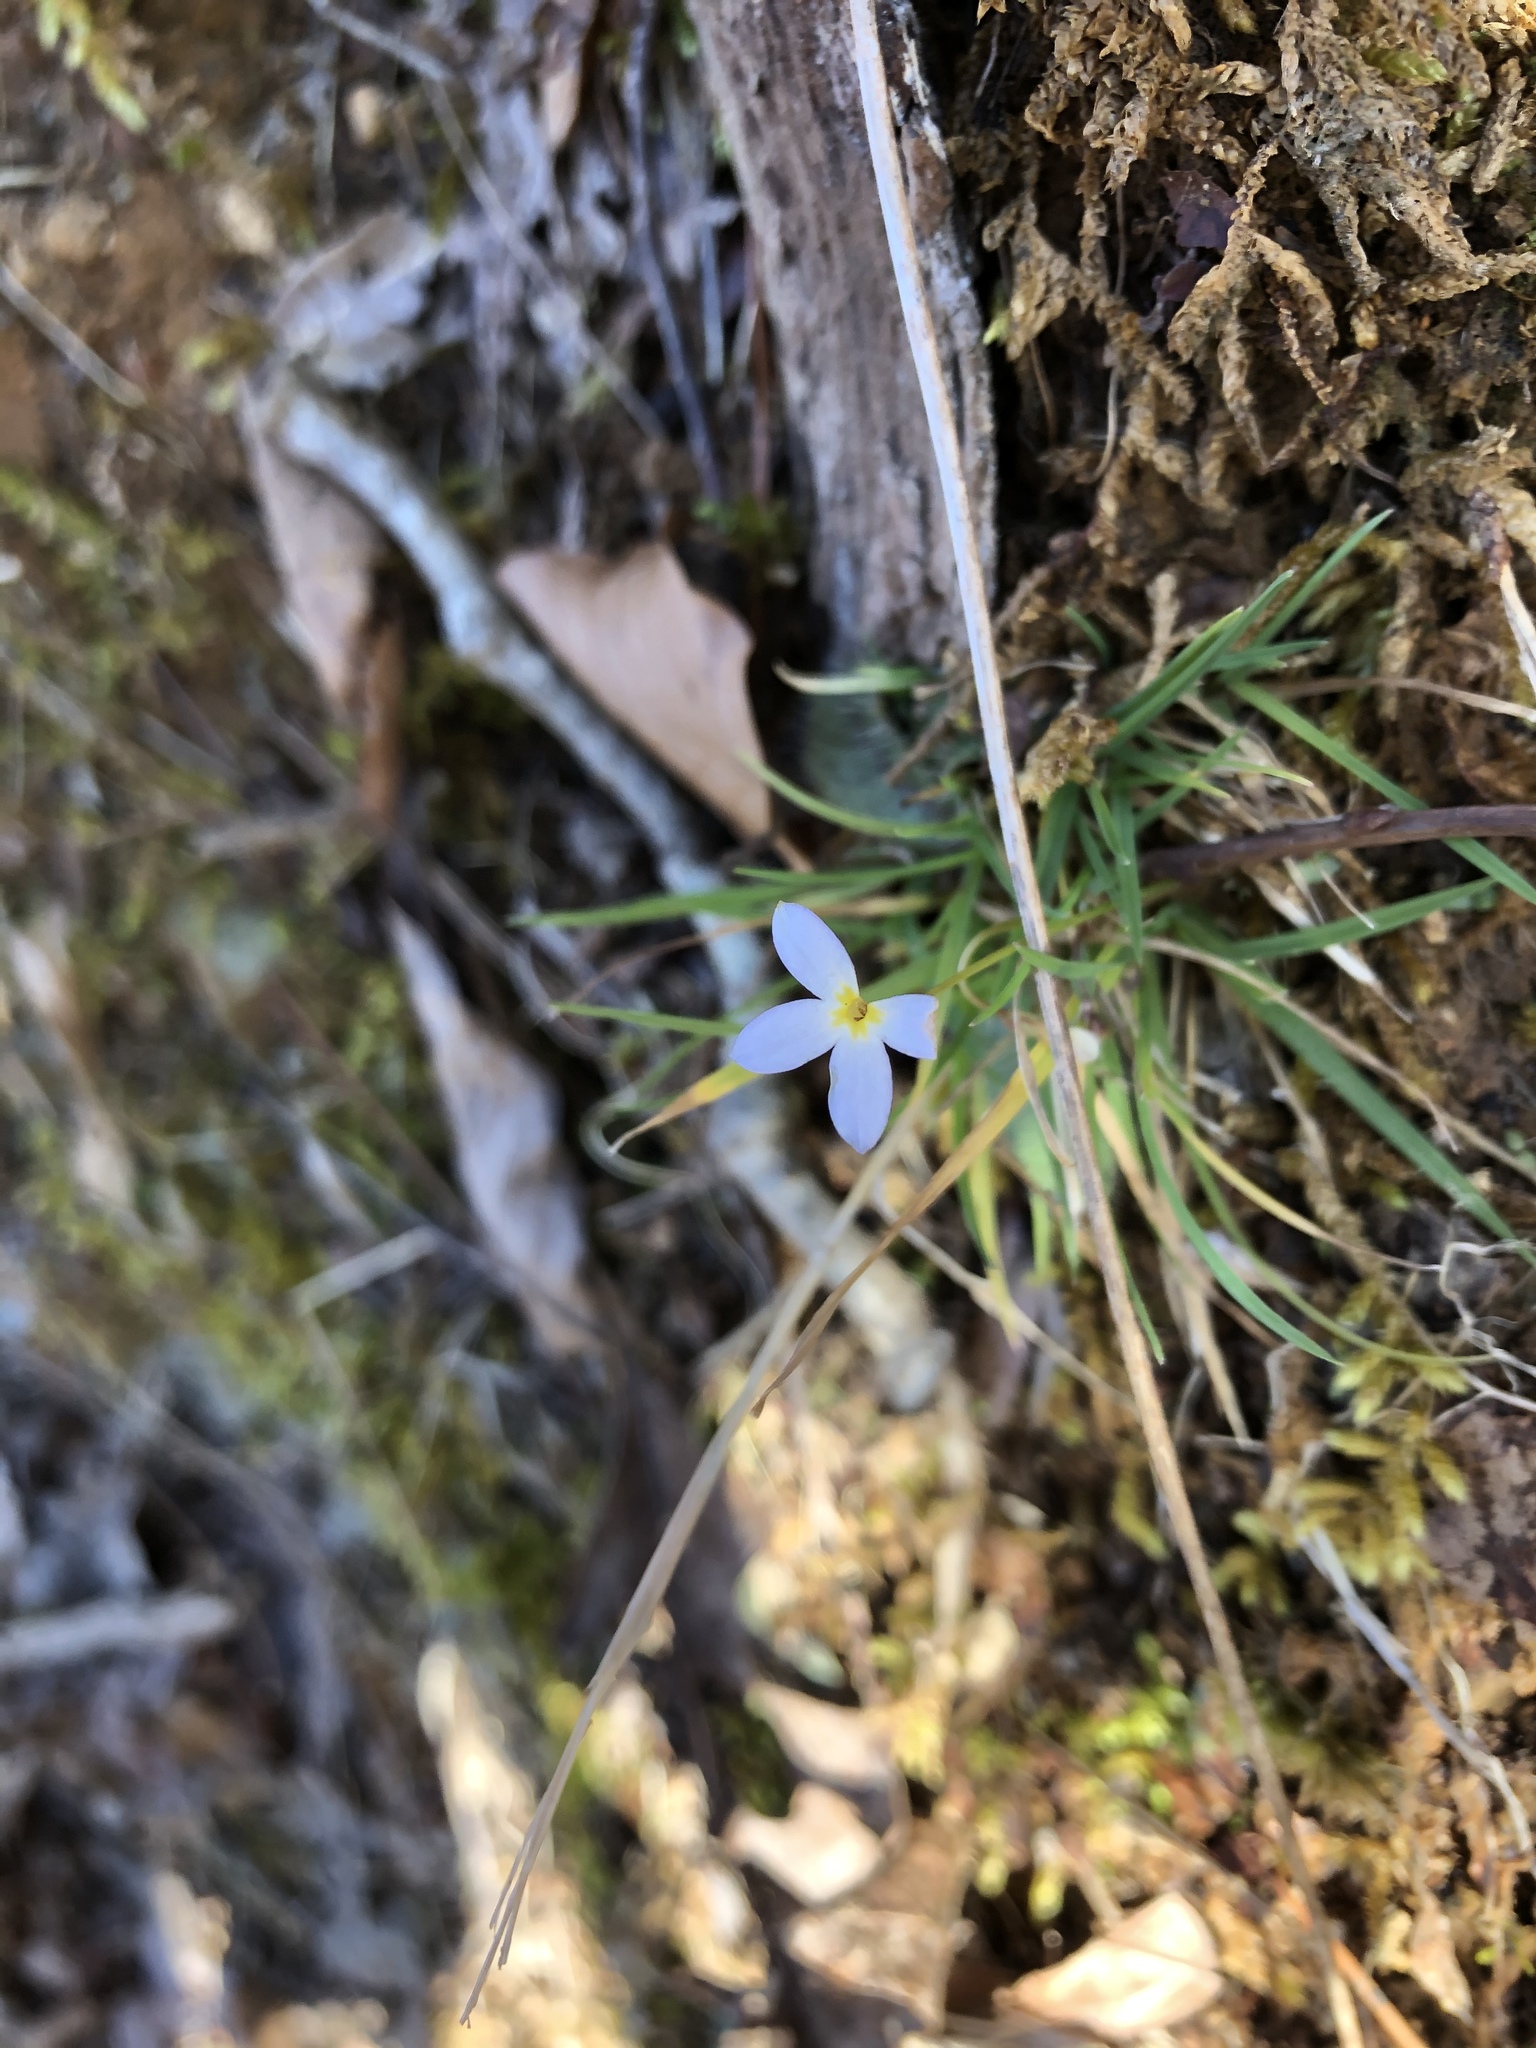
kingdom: Plantae
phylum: Tracheophyta
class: Magnoliopsida
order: Gentianales
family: Rubiaceae
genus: Houstonia
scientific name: Houstonia caerulea
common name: Bluets
